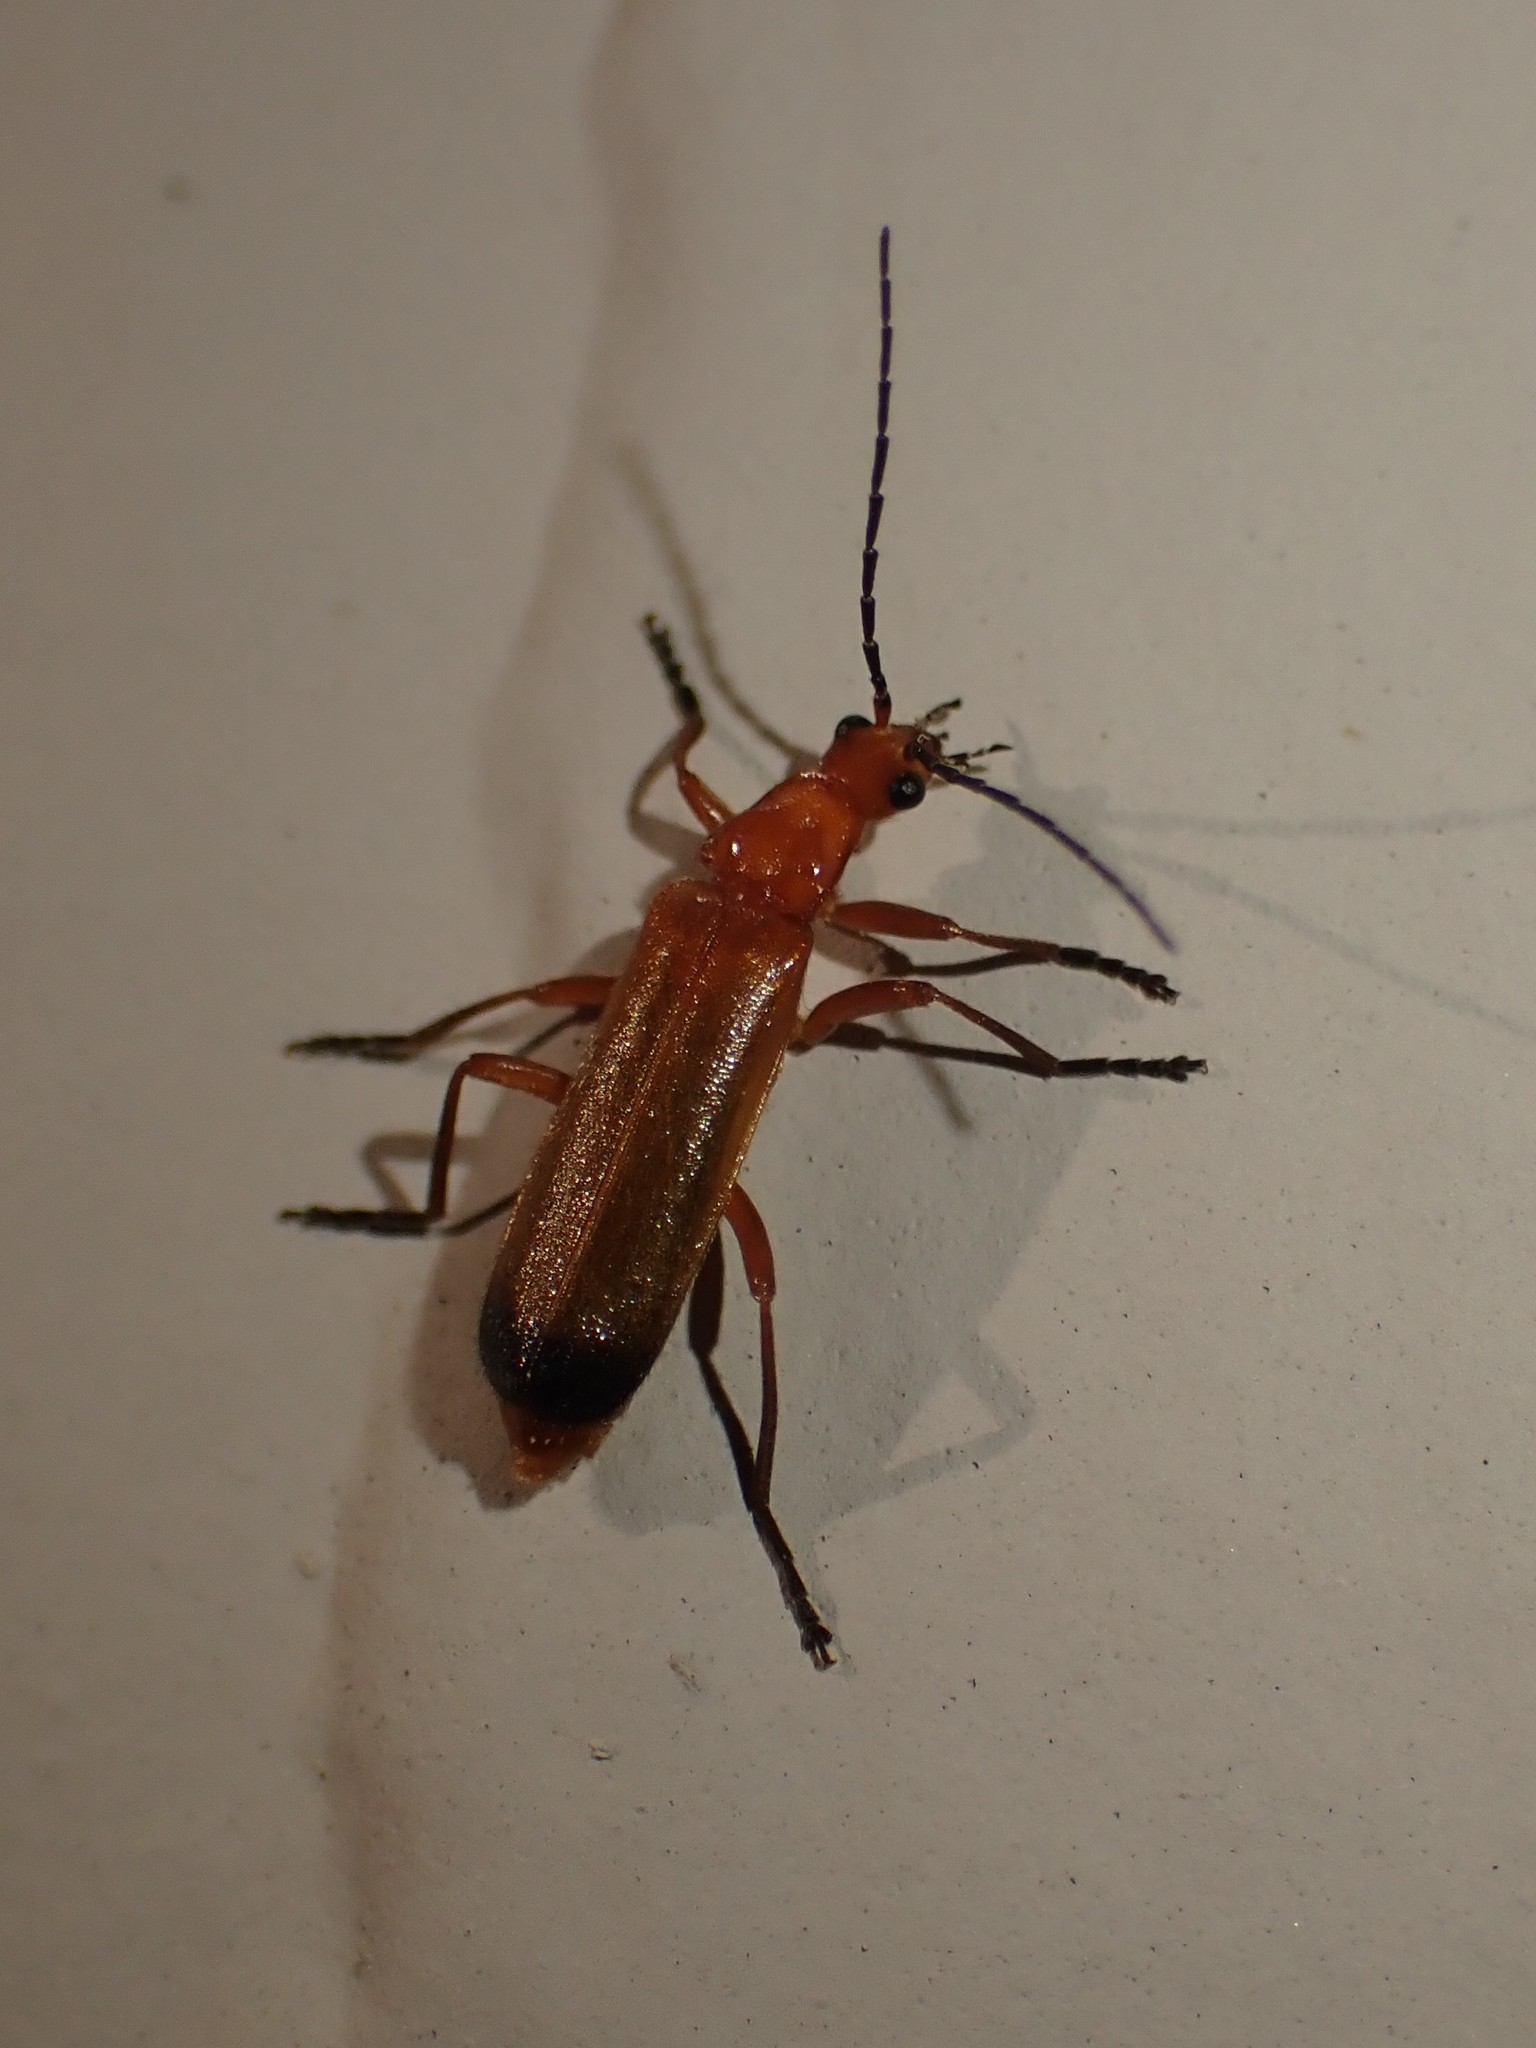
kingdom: Animalia
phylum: Arthropoda
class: Insecta
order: Coleoptera
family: Cantharidae
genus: Rhagonycha
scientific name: Rhagonycha fulva
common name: Common red soldier beetle
